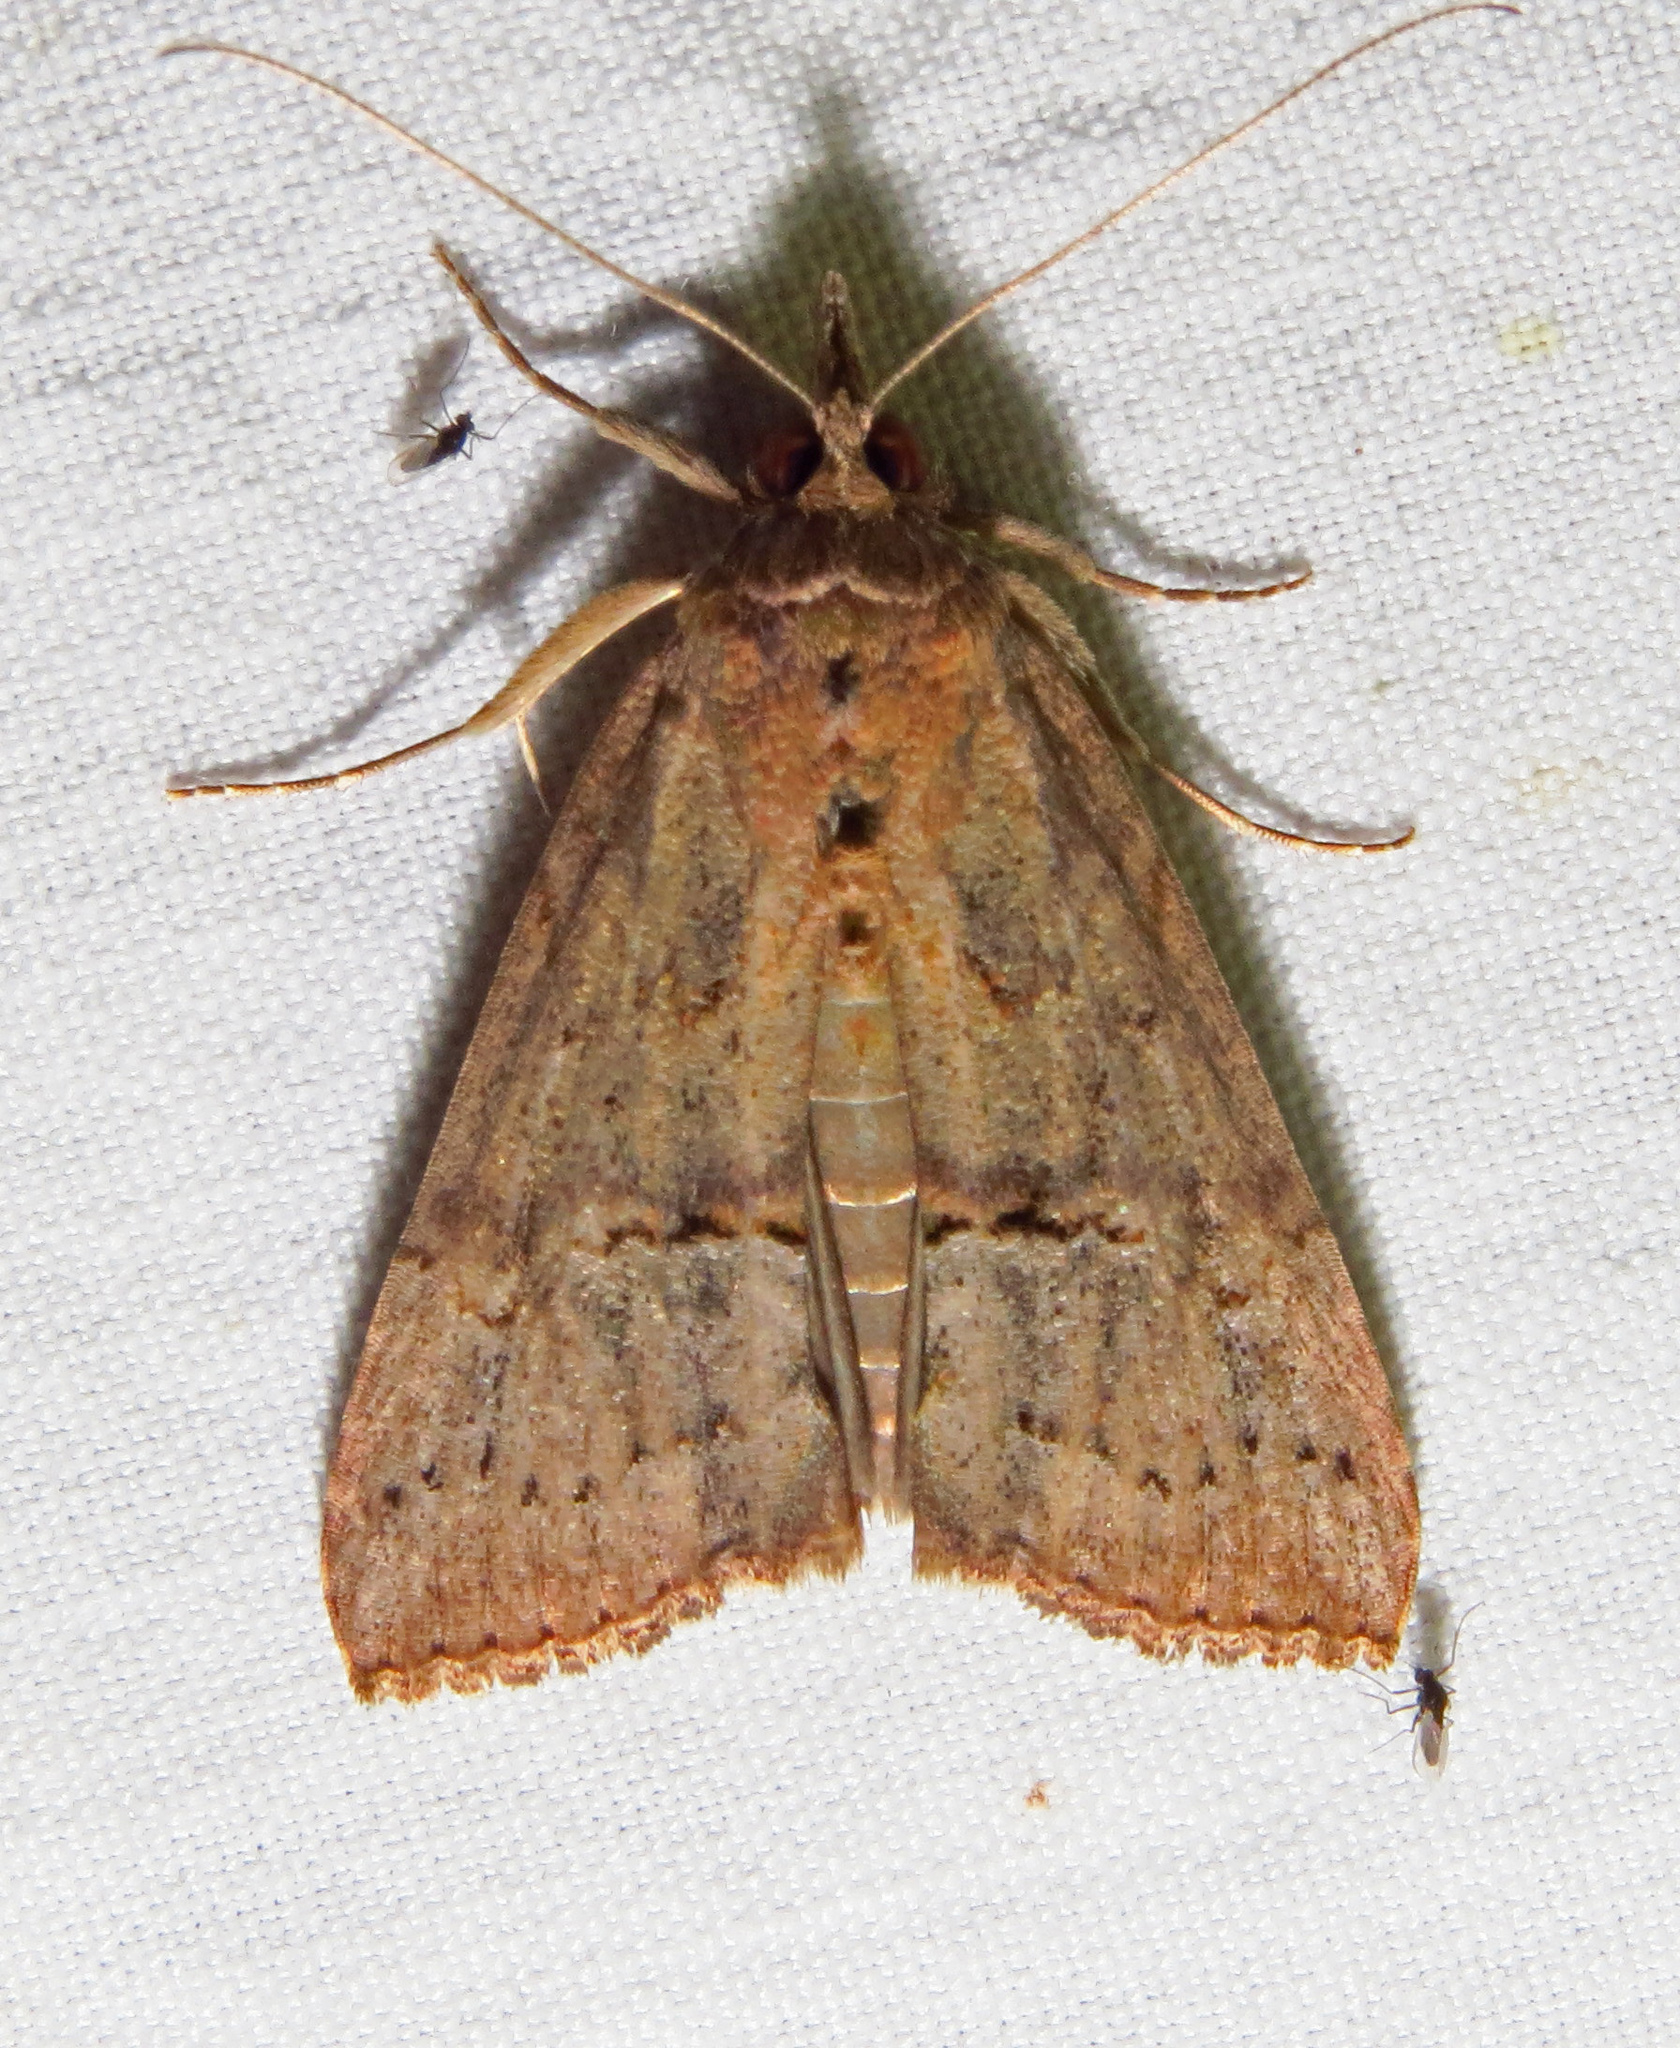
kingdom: Animalia
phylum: Arthropoda
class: Insecta
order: Lepidoptera
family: Erebidae
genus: Hypena
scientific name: Hypena scabra
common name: Green cloverworm
